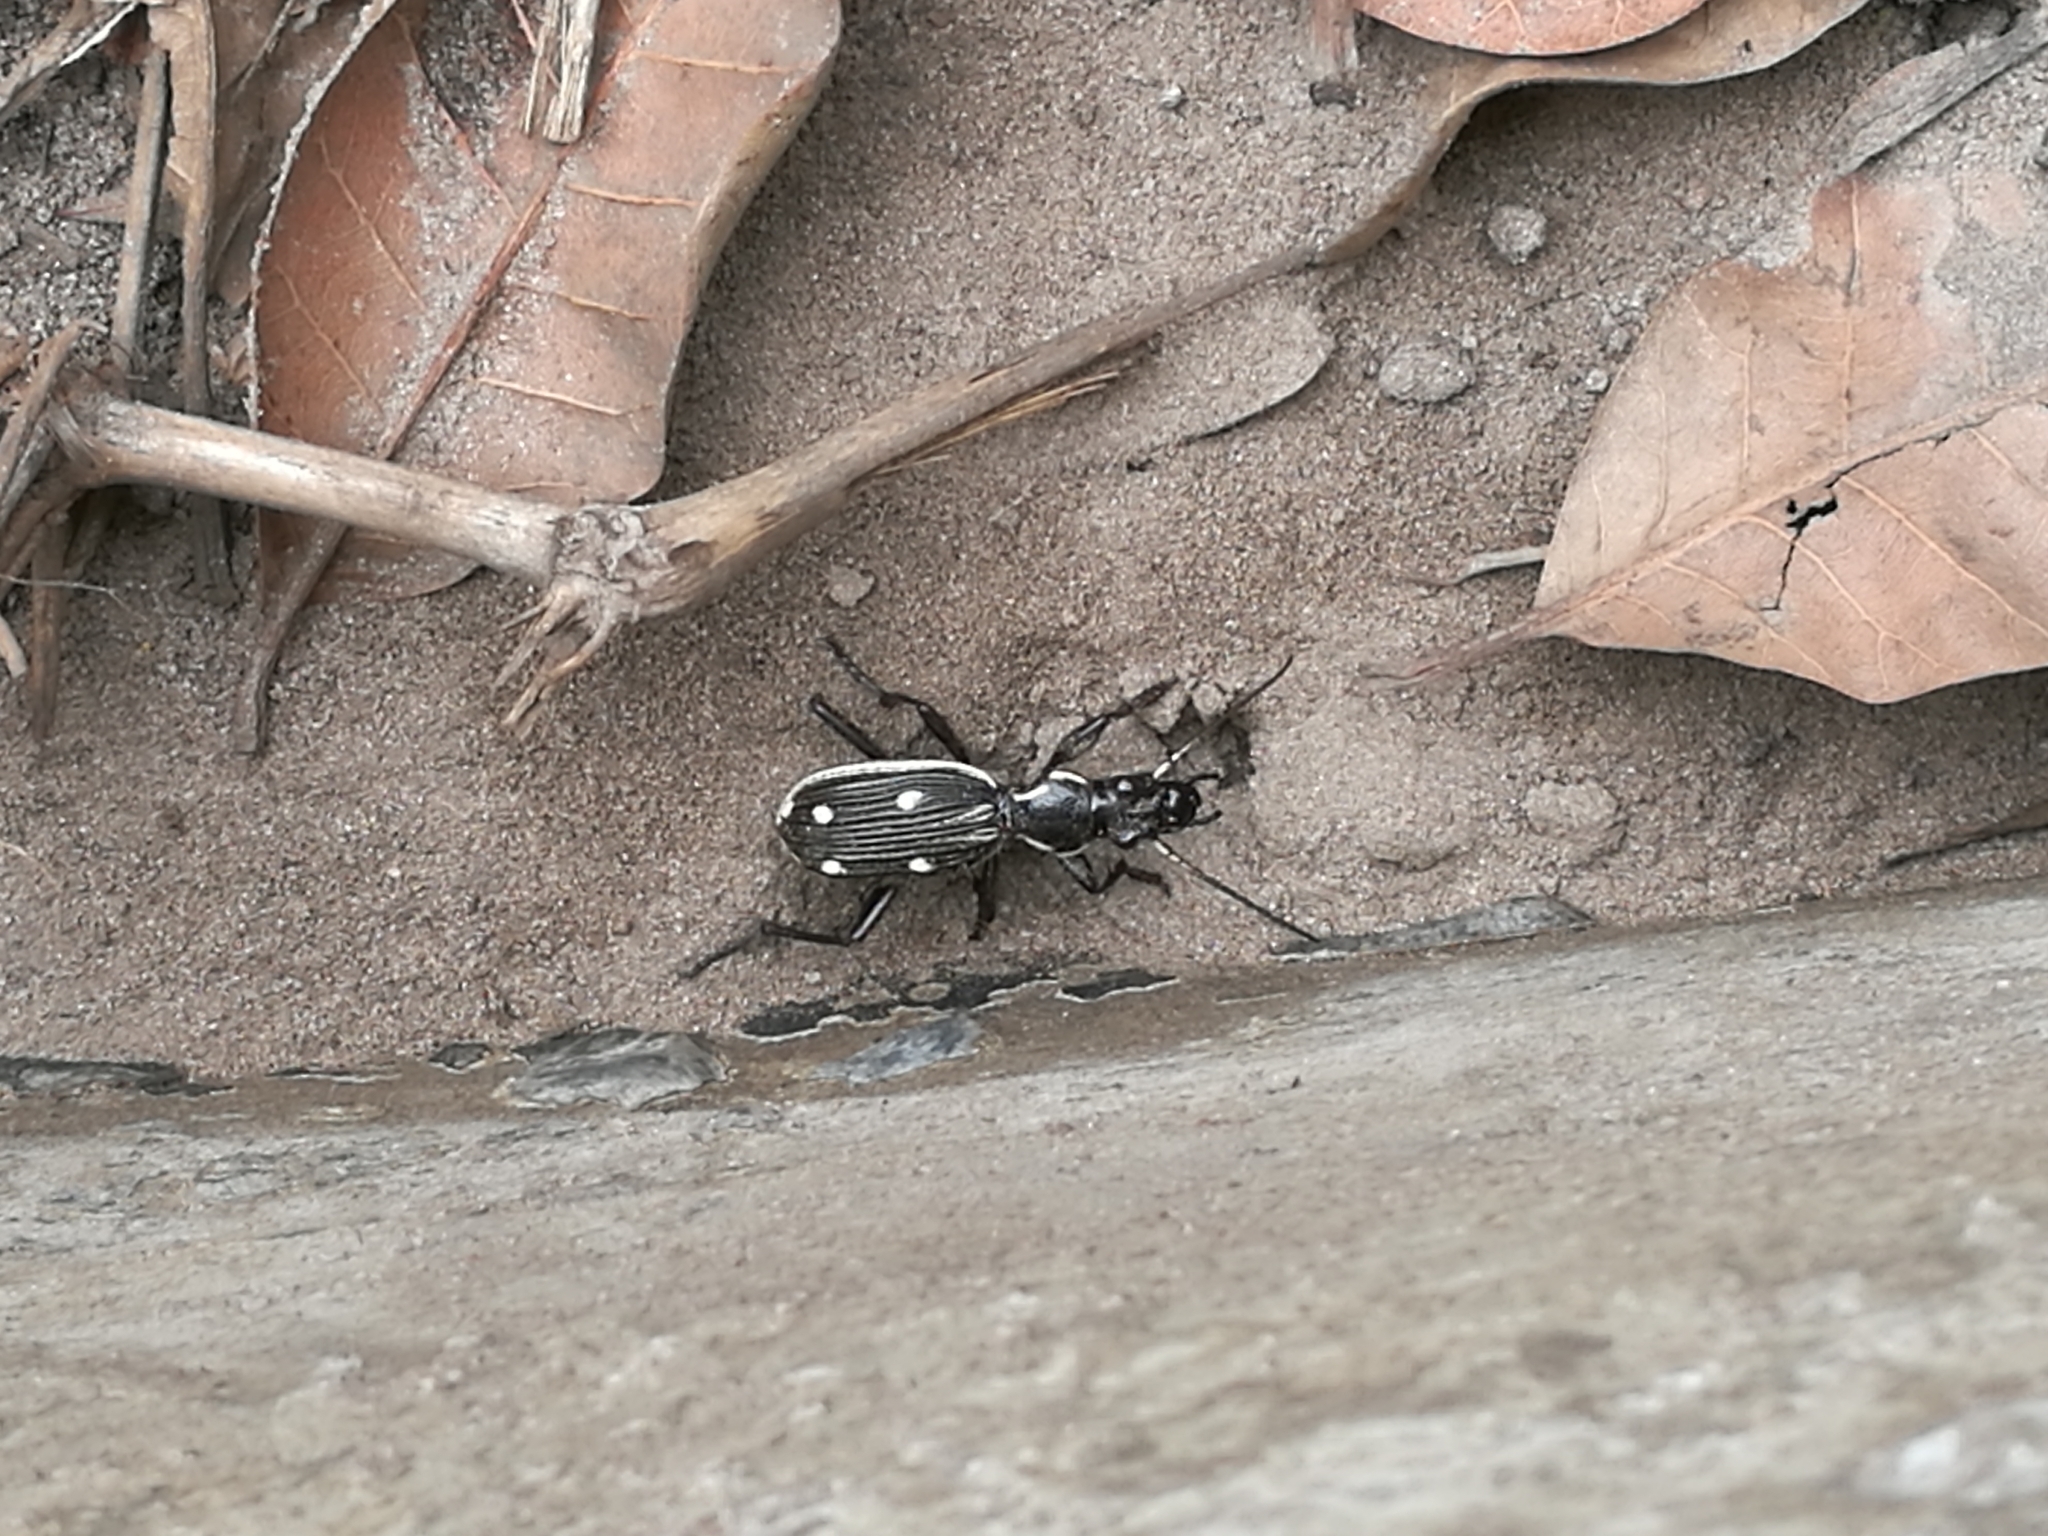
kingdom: Animalia
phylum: Arthropoda
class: Insecta
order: Coleoptera
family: Carabidae
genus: Anthia
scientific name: Anthia sulcata
